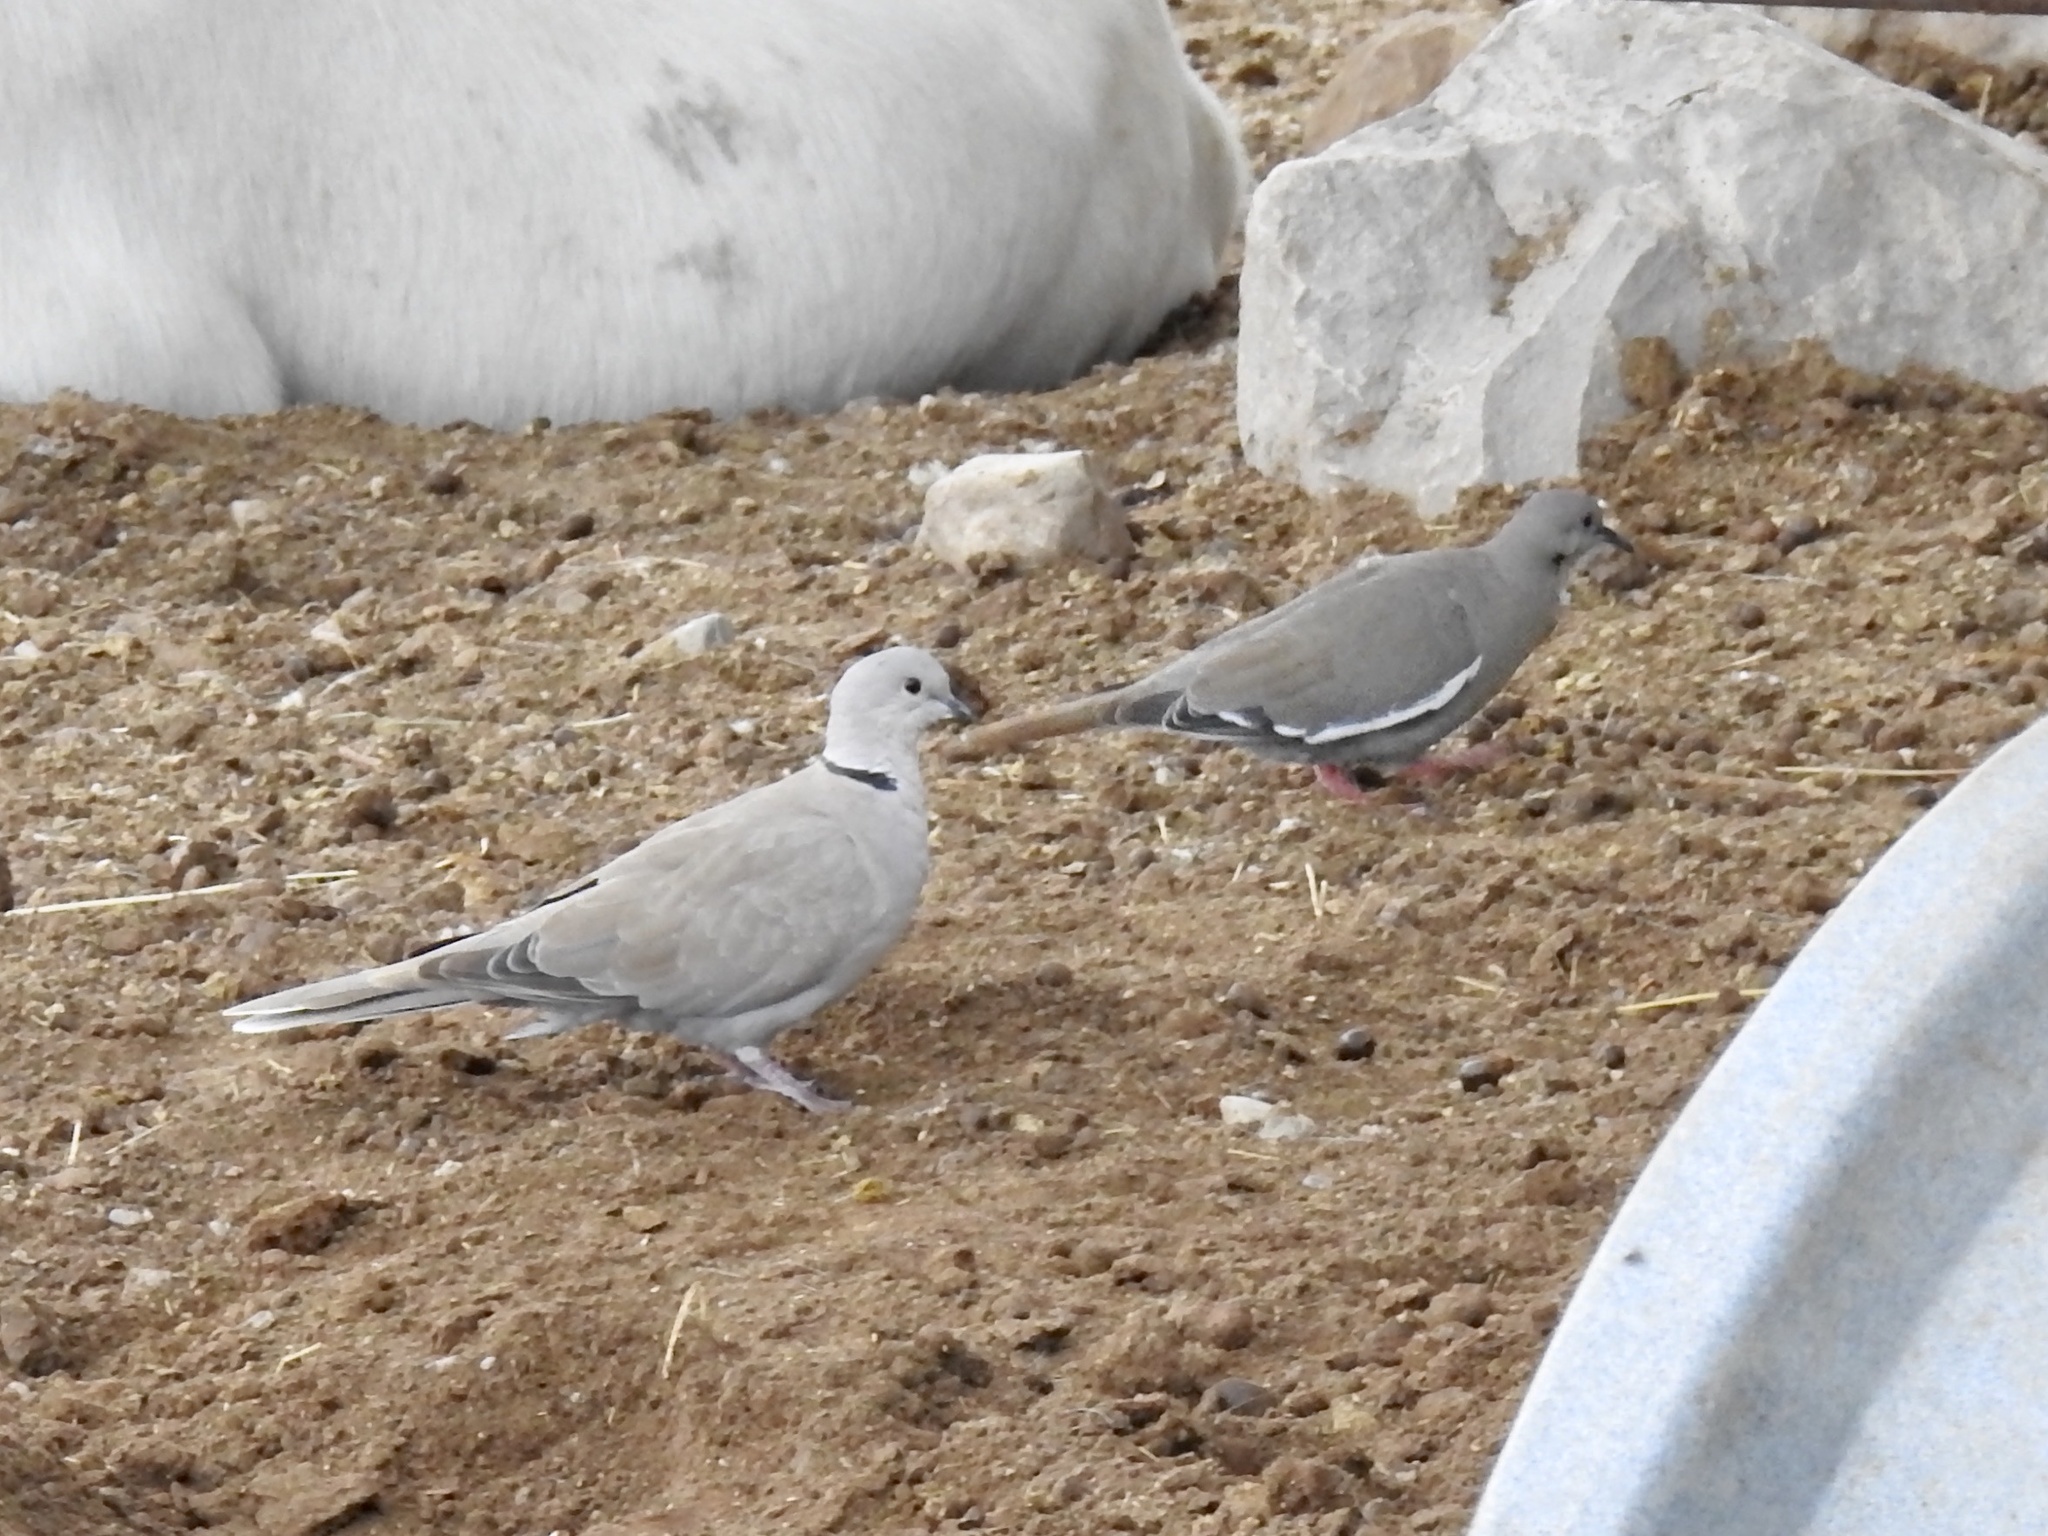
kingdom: Animalia
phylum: Chordata
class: Aves
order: Columbiformes
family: Columbidae
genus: Zenaida
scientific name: Zenaida asiatica
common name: White-winged dove
